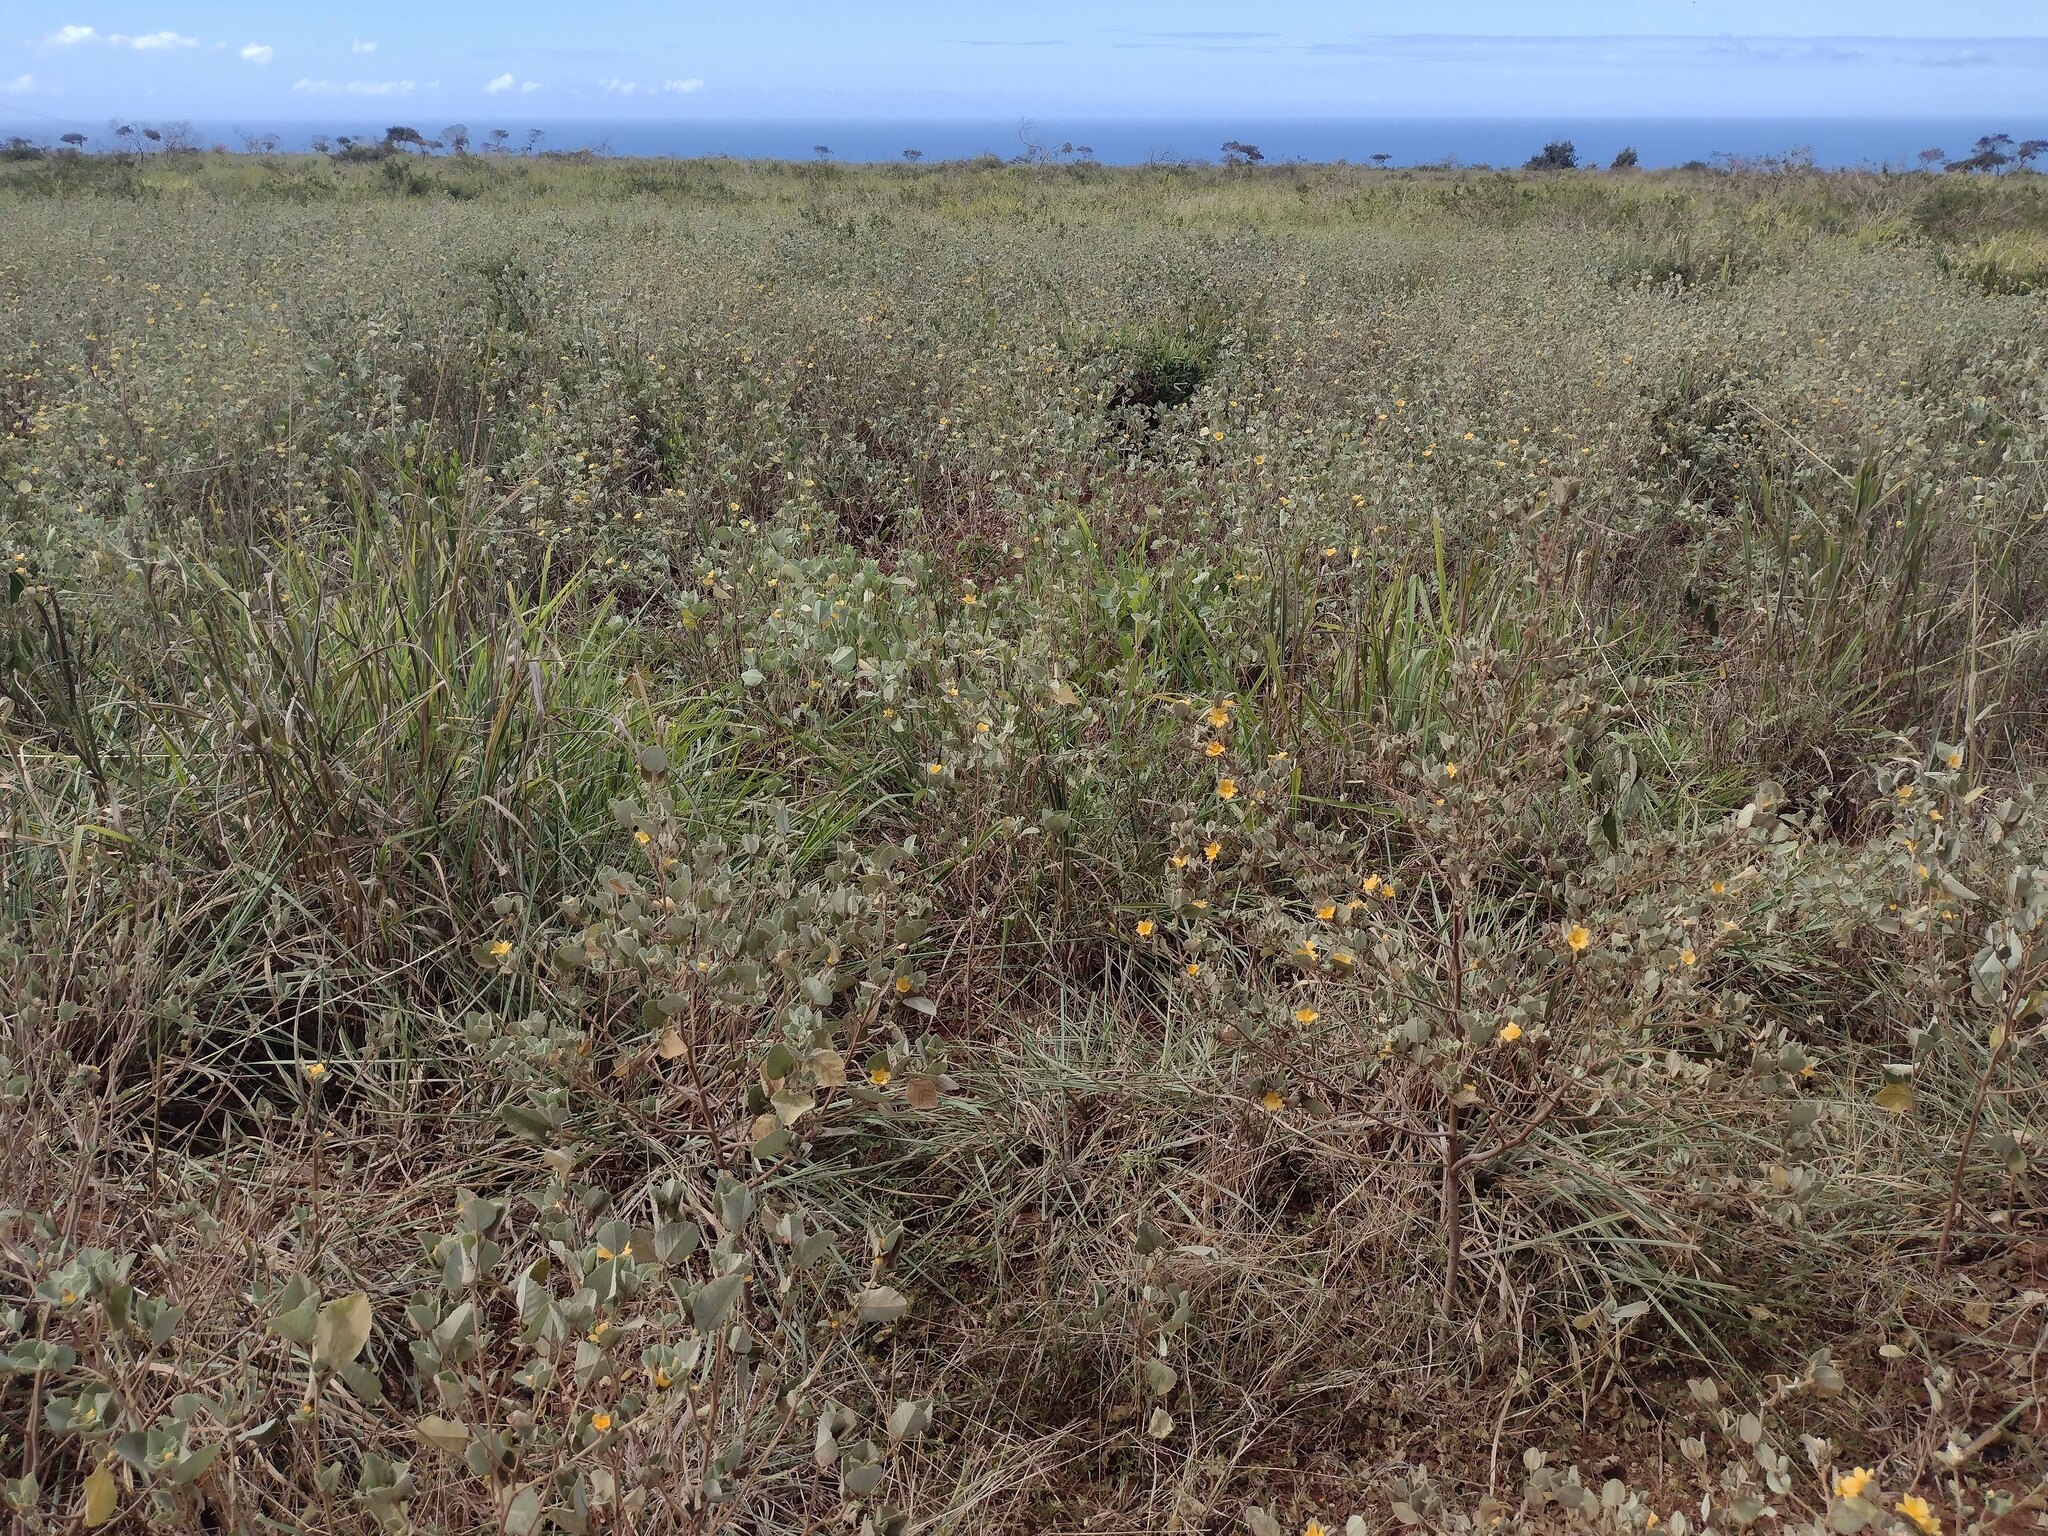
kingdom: Plantae
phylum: Tracheophyta
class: Magnoliopsida
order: Malvales
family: Malvaceae
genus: Sida
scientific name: Sida fallax
